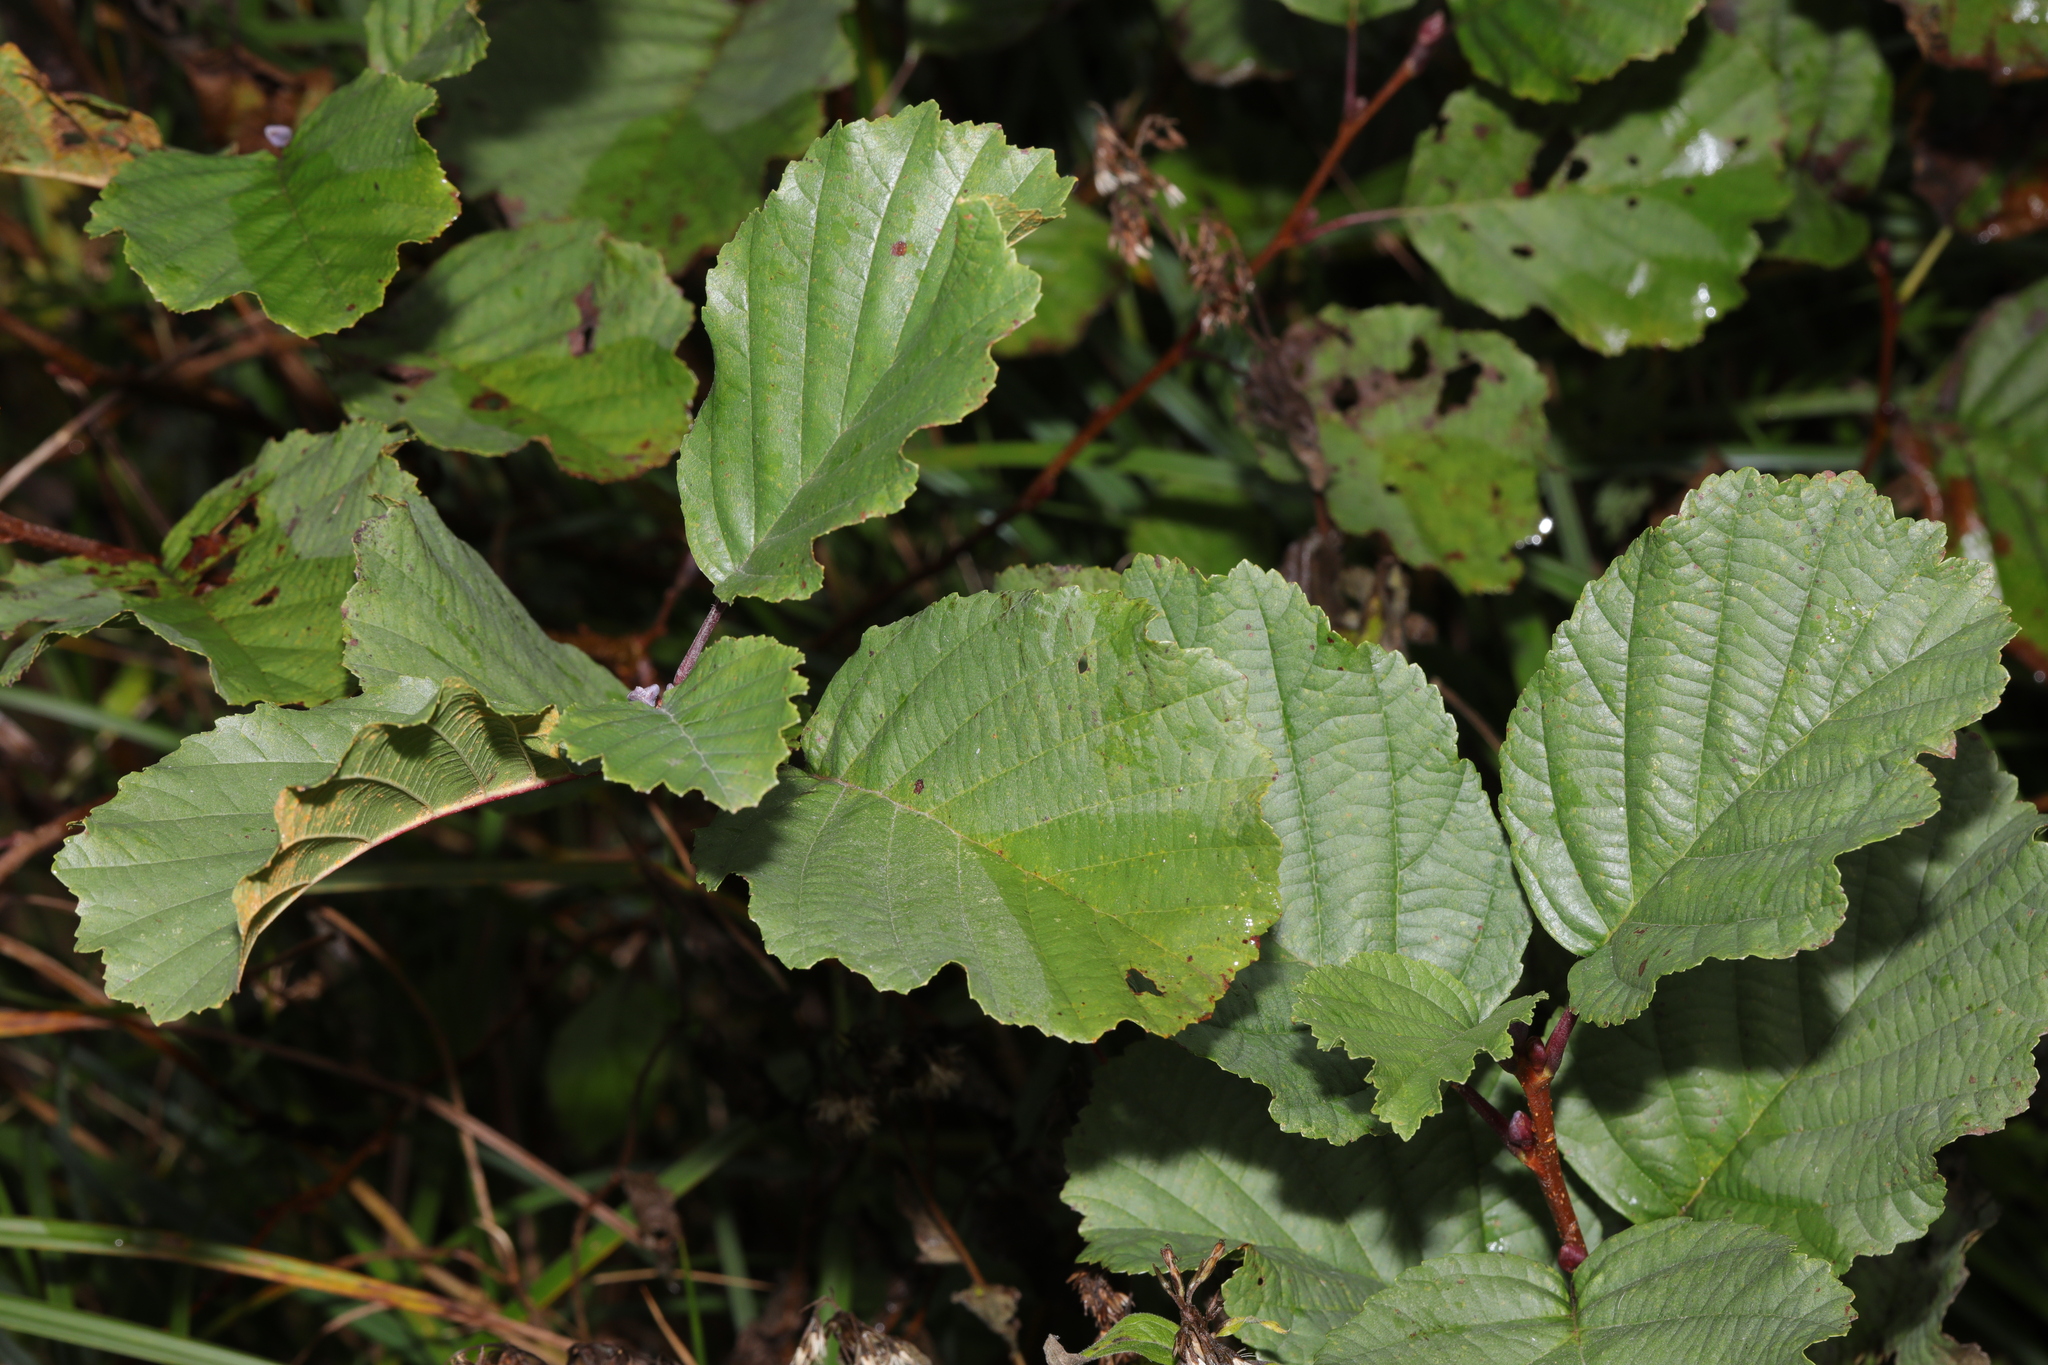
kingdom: Plantae
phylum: Tracheophyta
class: Magnoliopsida
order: Fagales
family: Betulaceae
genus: Alnus
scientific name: Alnus glutinosa
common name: Black alder
